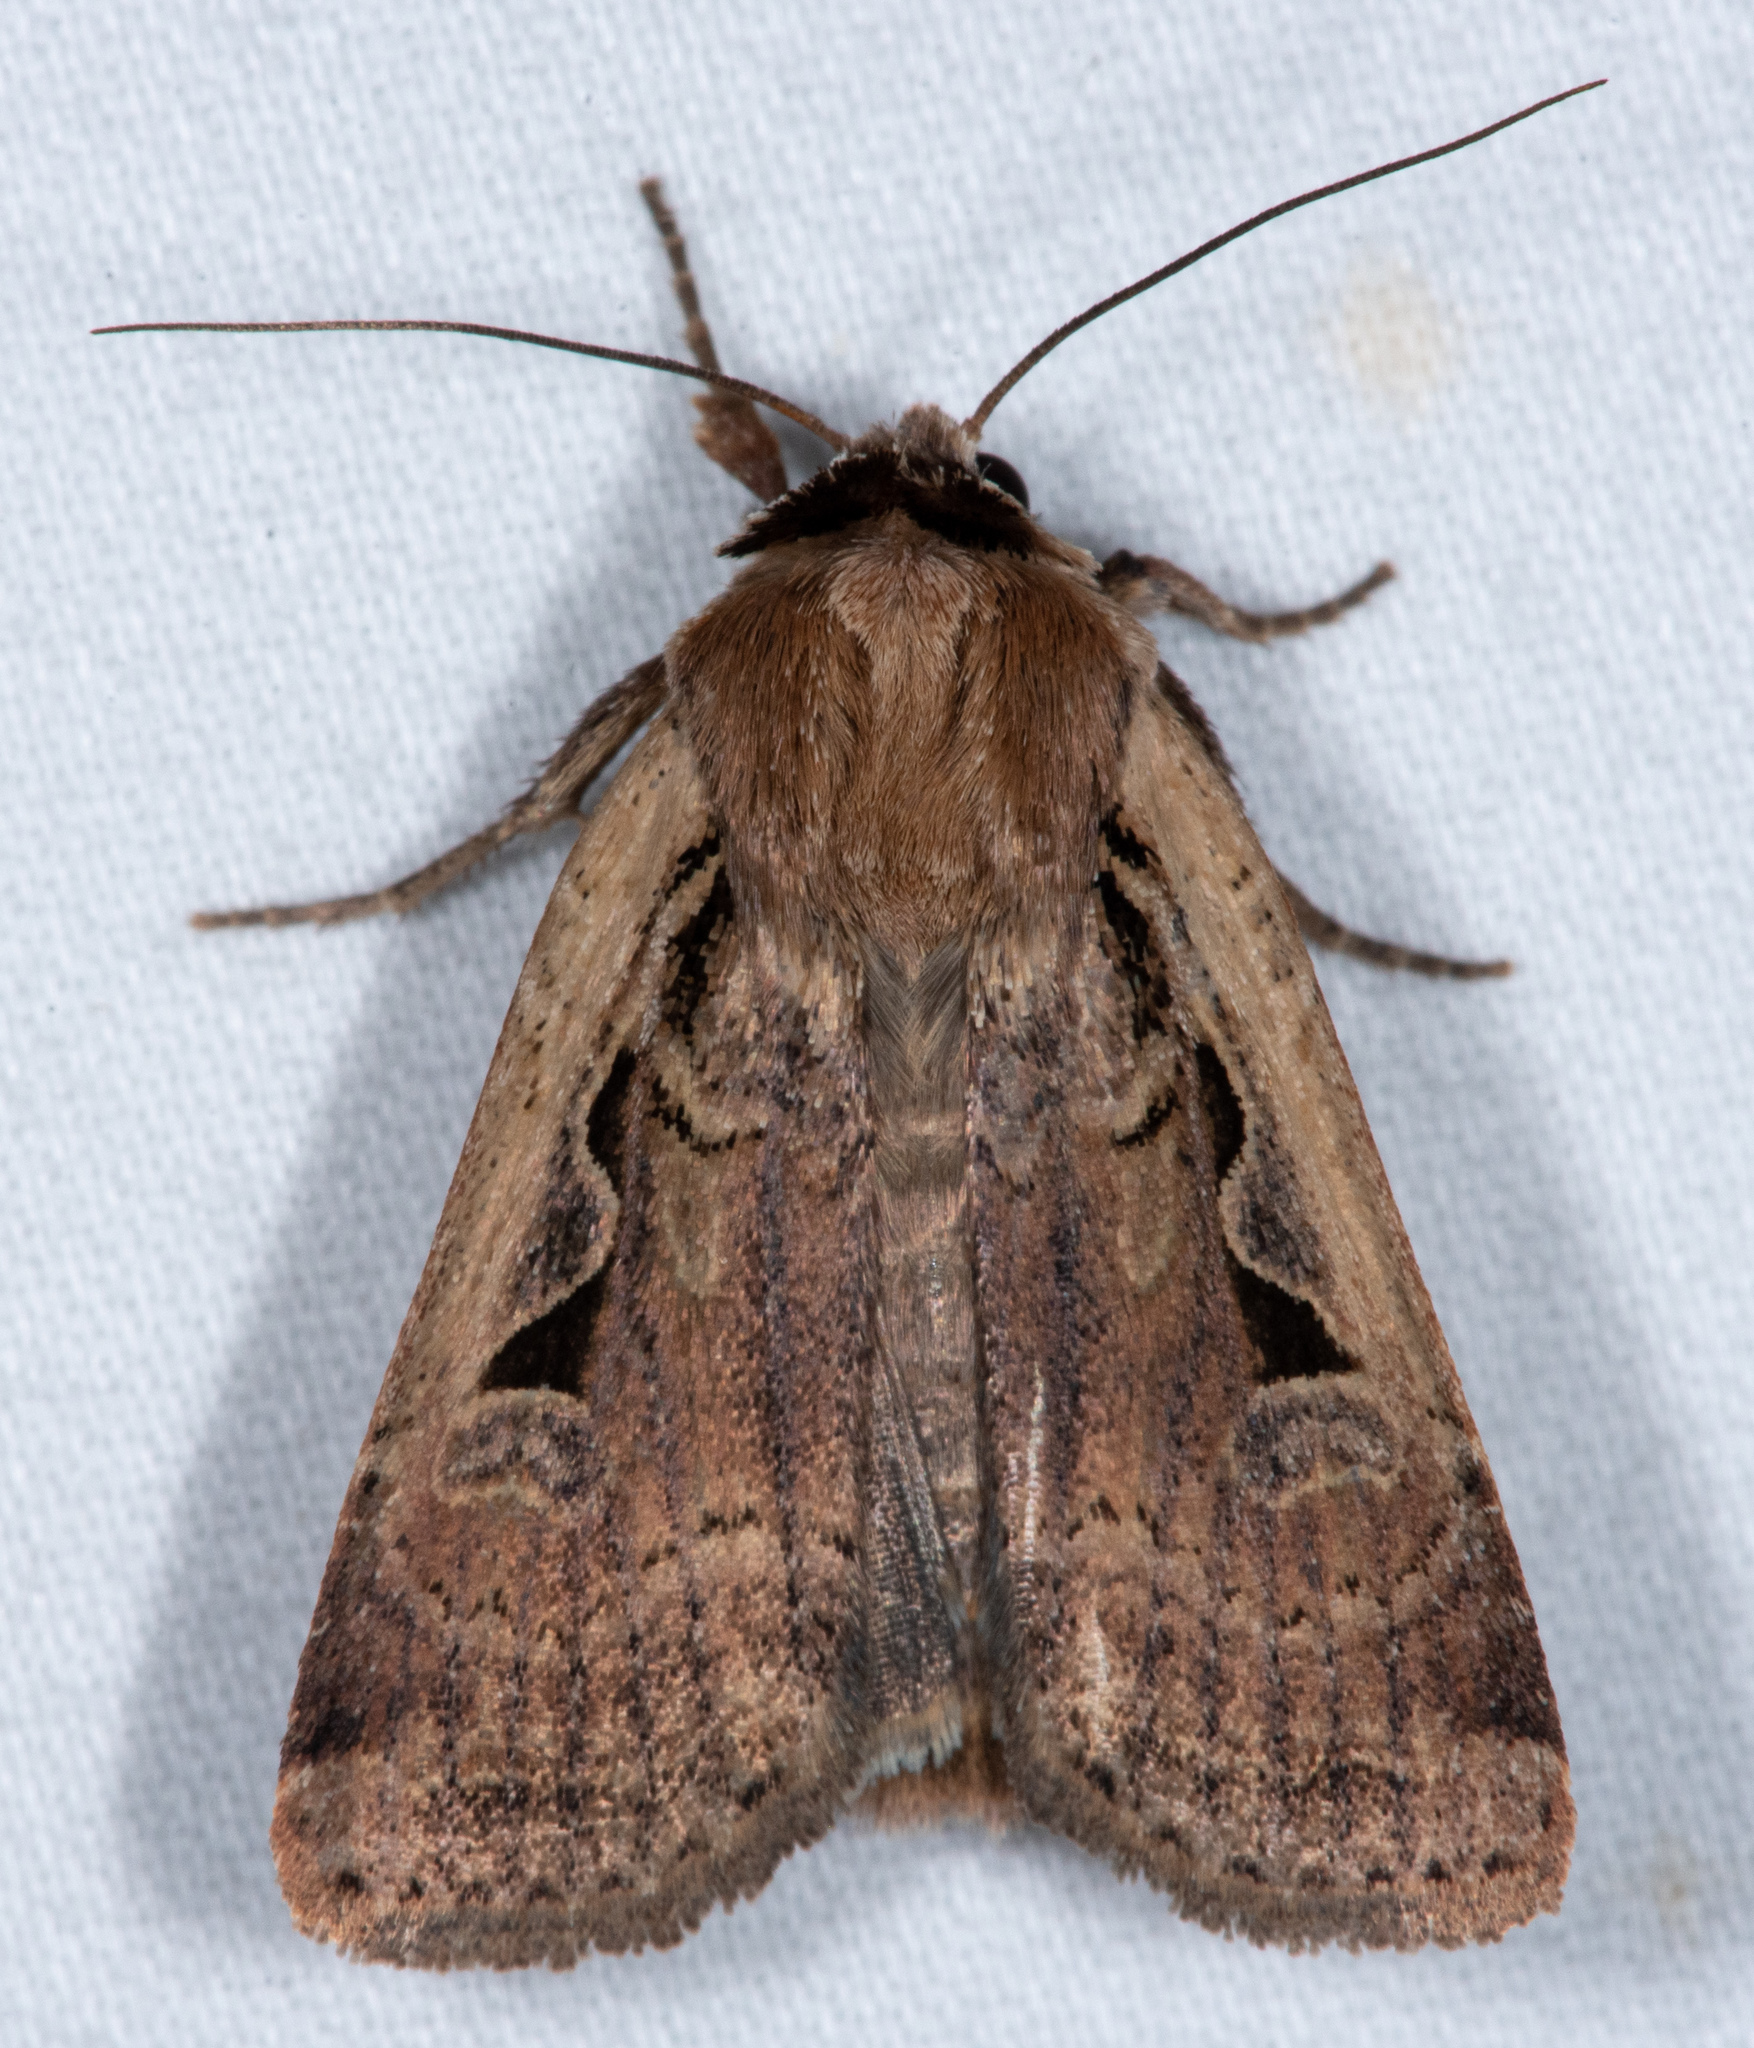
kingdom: Animalia
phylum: Arthropoda
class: Insecta
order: Lepidoptera
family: Noctuidae
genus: Parabagrotis
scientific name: Parabagrotis sulinaris
